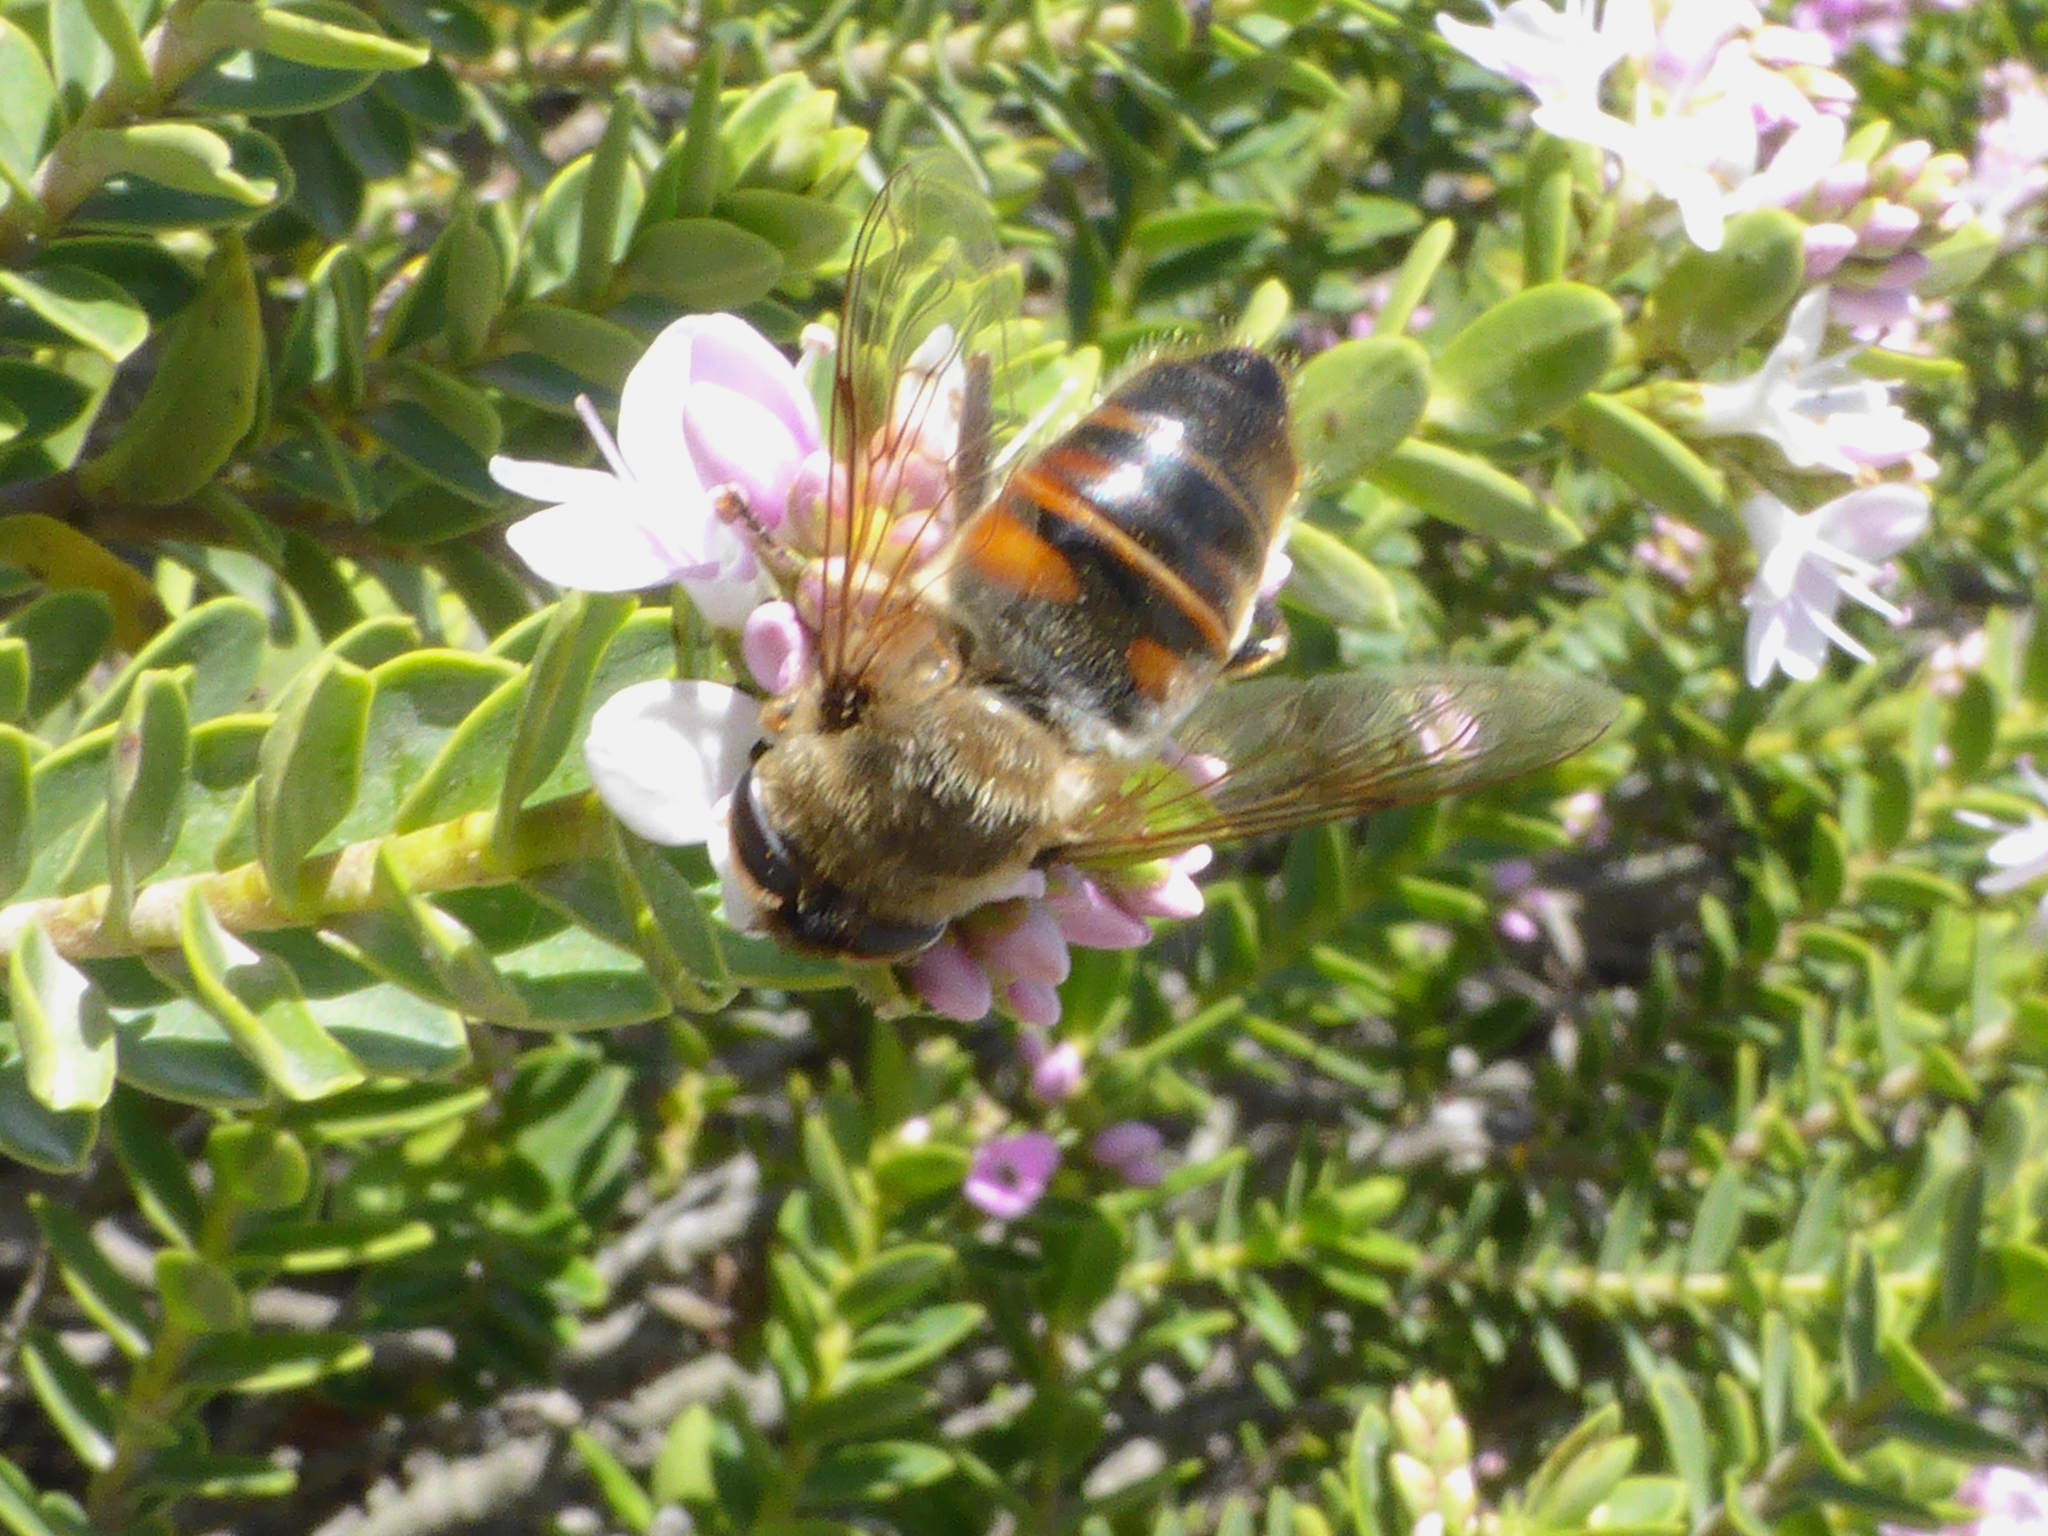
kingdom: Animalia
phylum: Arthropoda
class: Insecta
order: Diptera
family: Syrphidae
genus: Eristalis
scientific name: Eristalis tenax
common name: Drone fly
